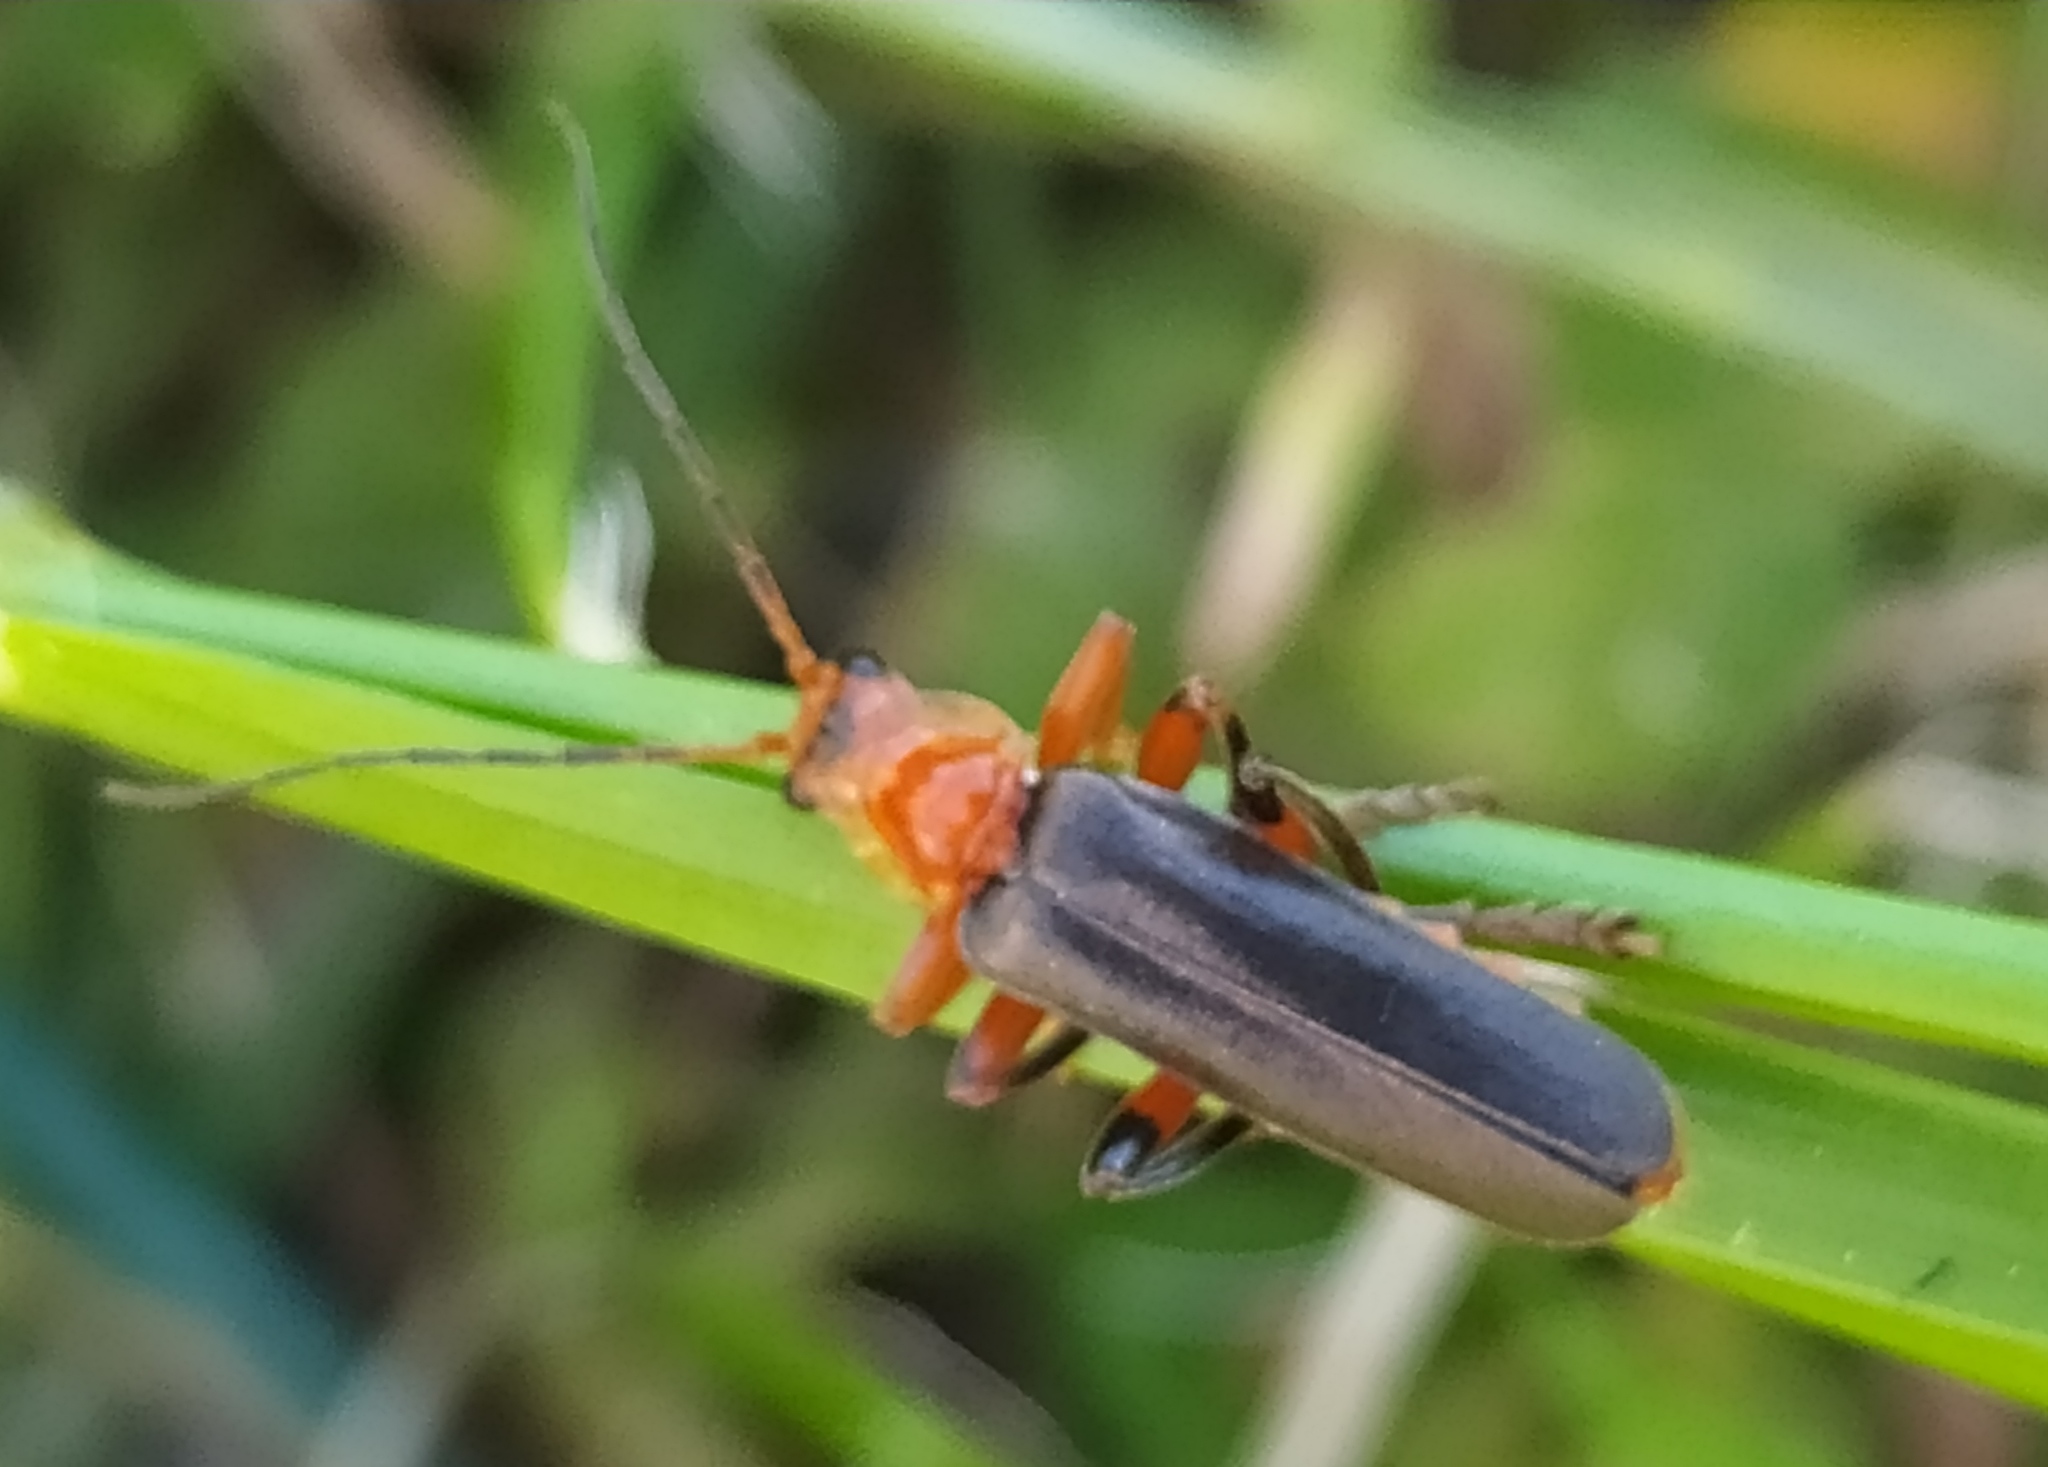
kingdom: Animalia
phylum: Arthropoda
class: Insecta
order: Coleoptera
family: Cantharidae
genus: Cantharis
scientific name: Cantharis livida
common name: Livid soldier beetle
